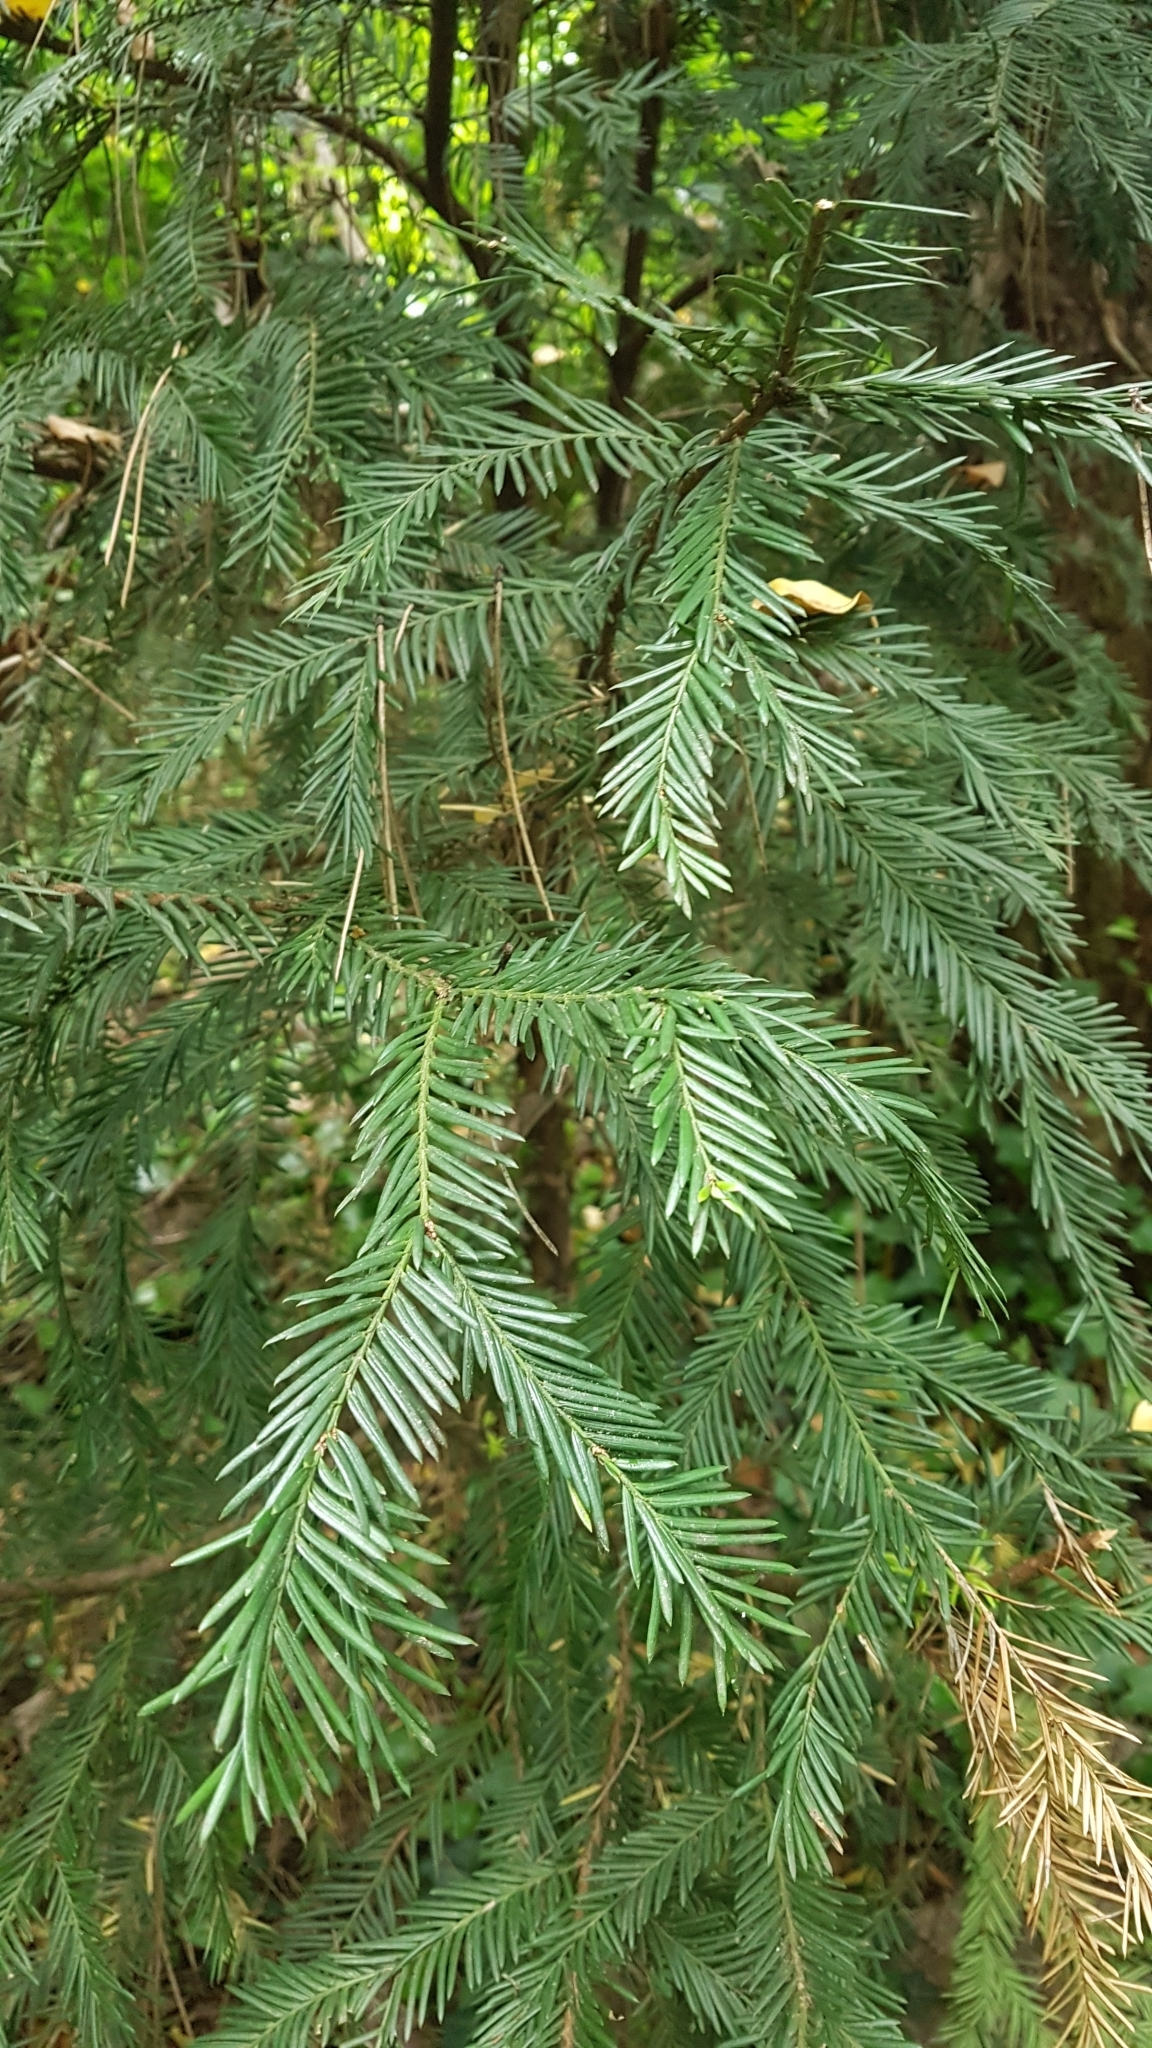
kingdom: Plantae
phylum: Tracheophyta
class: Pinopsida
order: Pinales
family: Taxaceae
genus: Taxus
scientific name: Taxus baccata
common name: Yew
